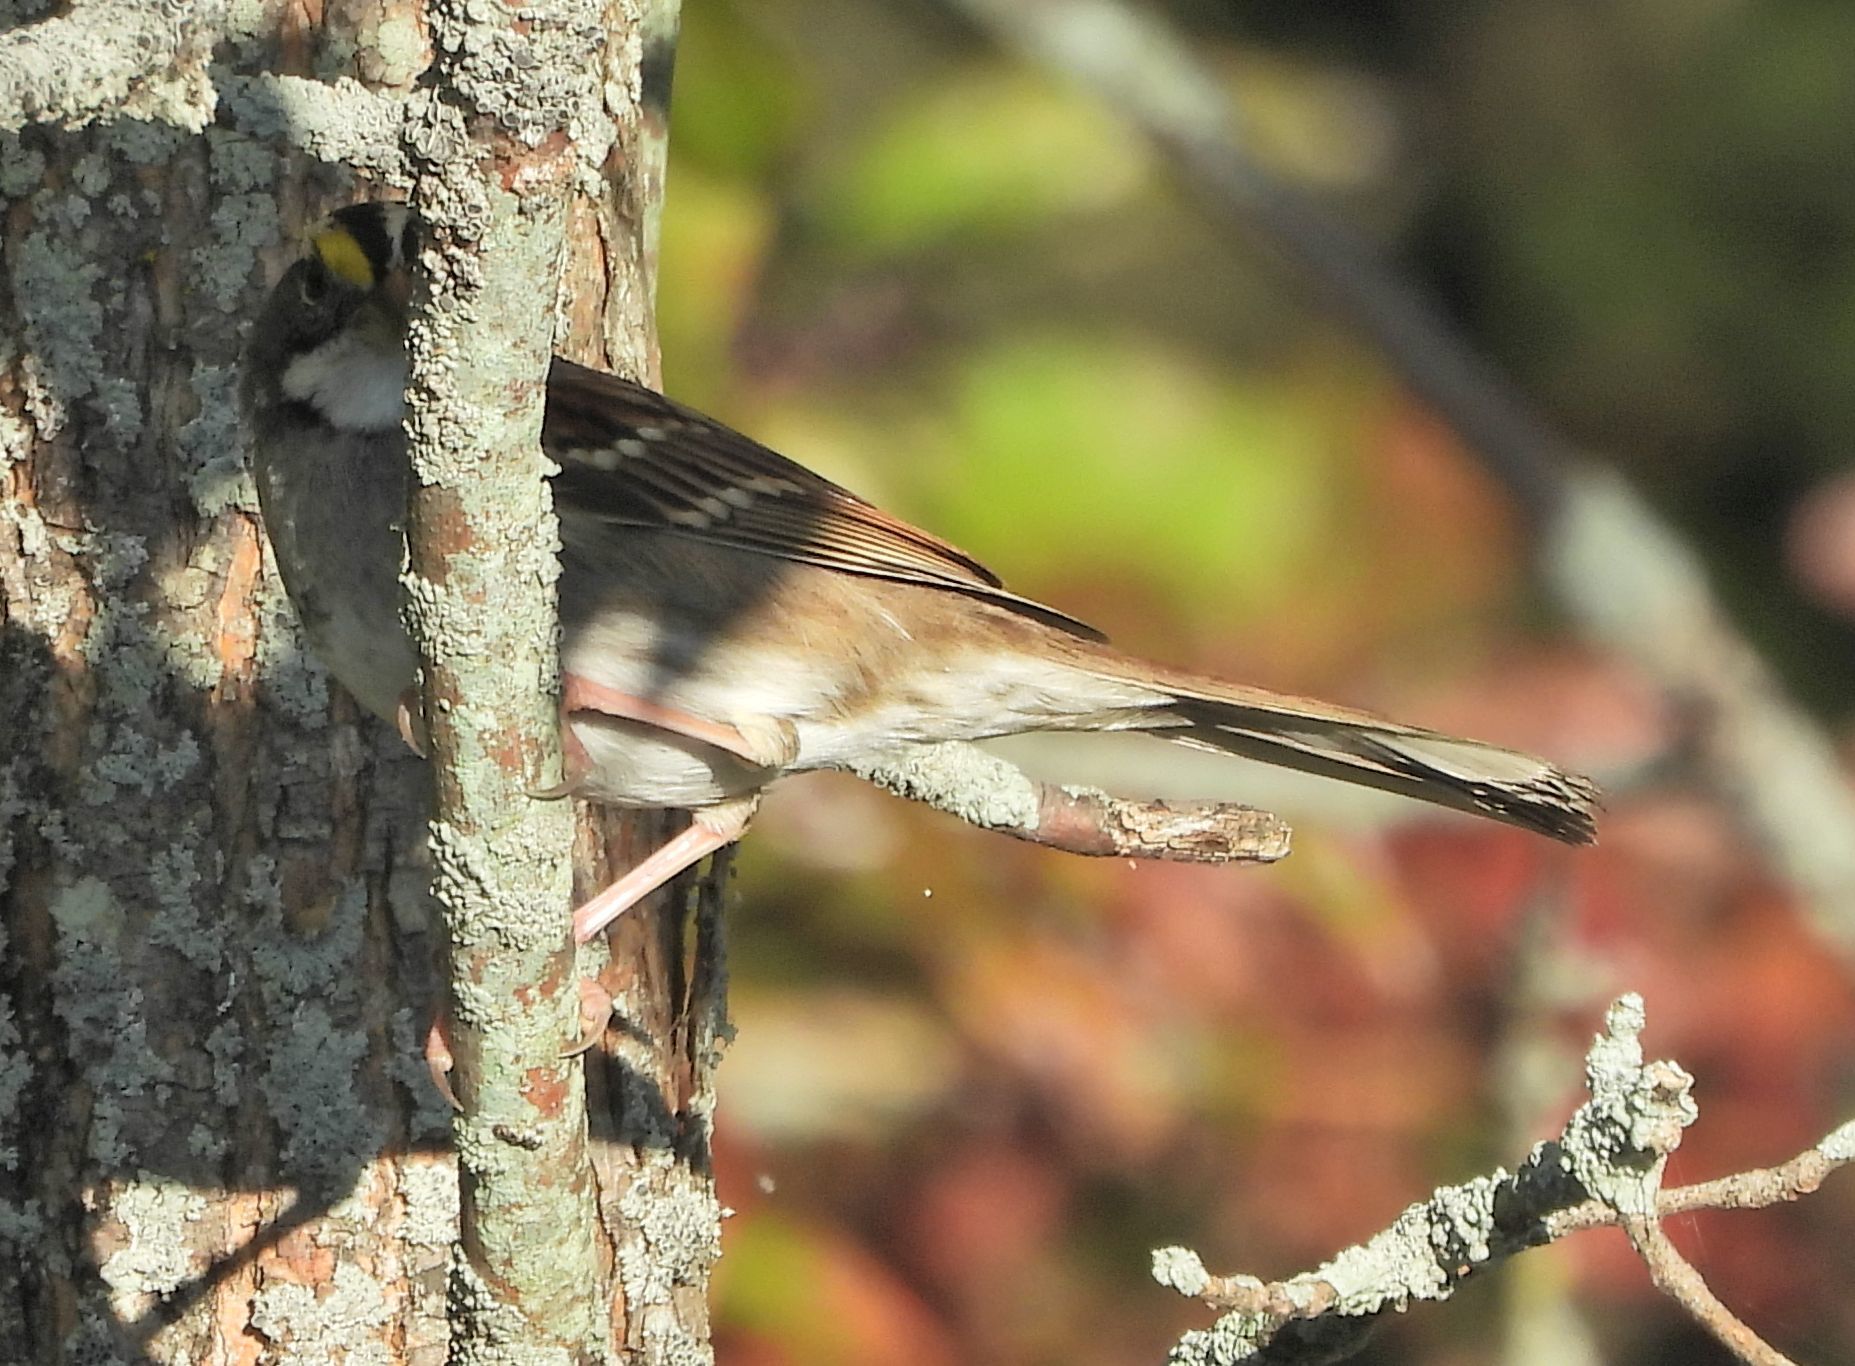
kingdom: Animalia
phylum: Chordata
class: Aves
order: Passeriformes
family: Passerellidae
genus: Zonotrichia
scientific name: Zonotrichia albicollis
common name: White-throated sparrow
